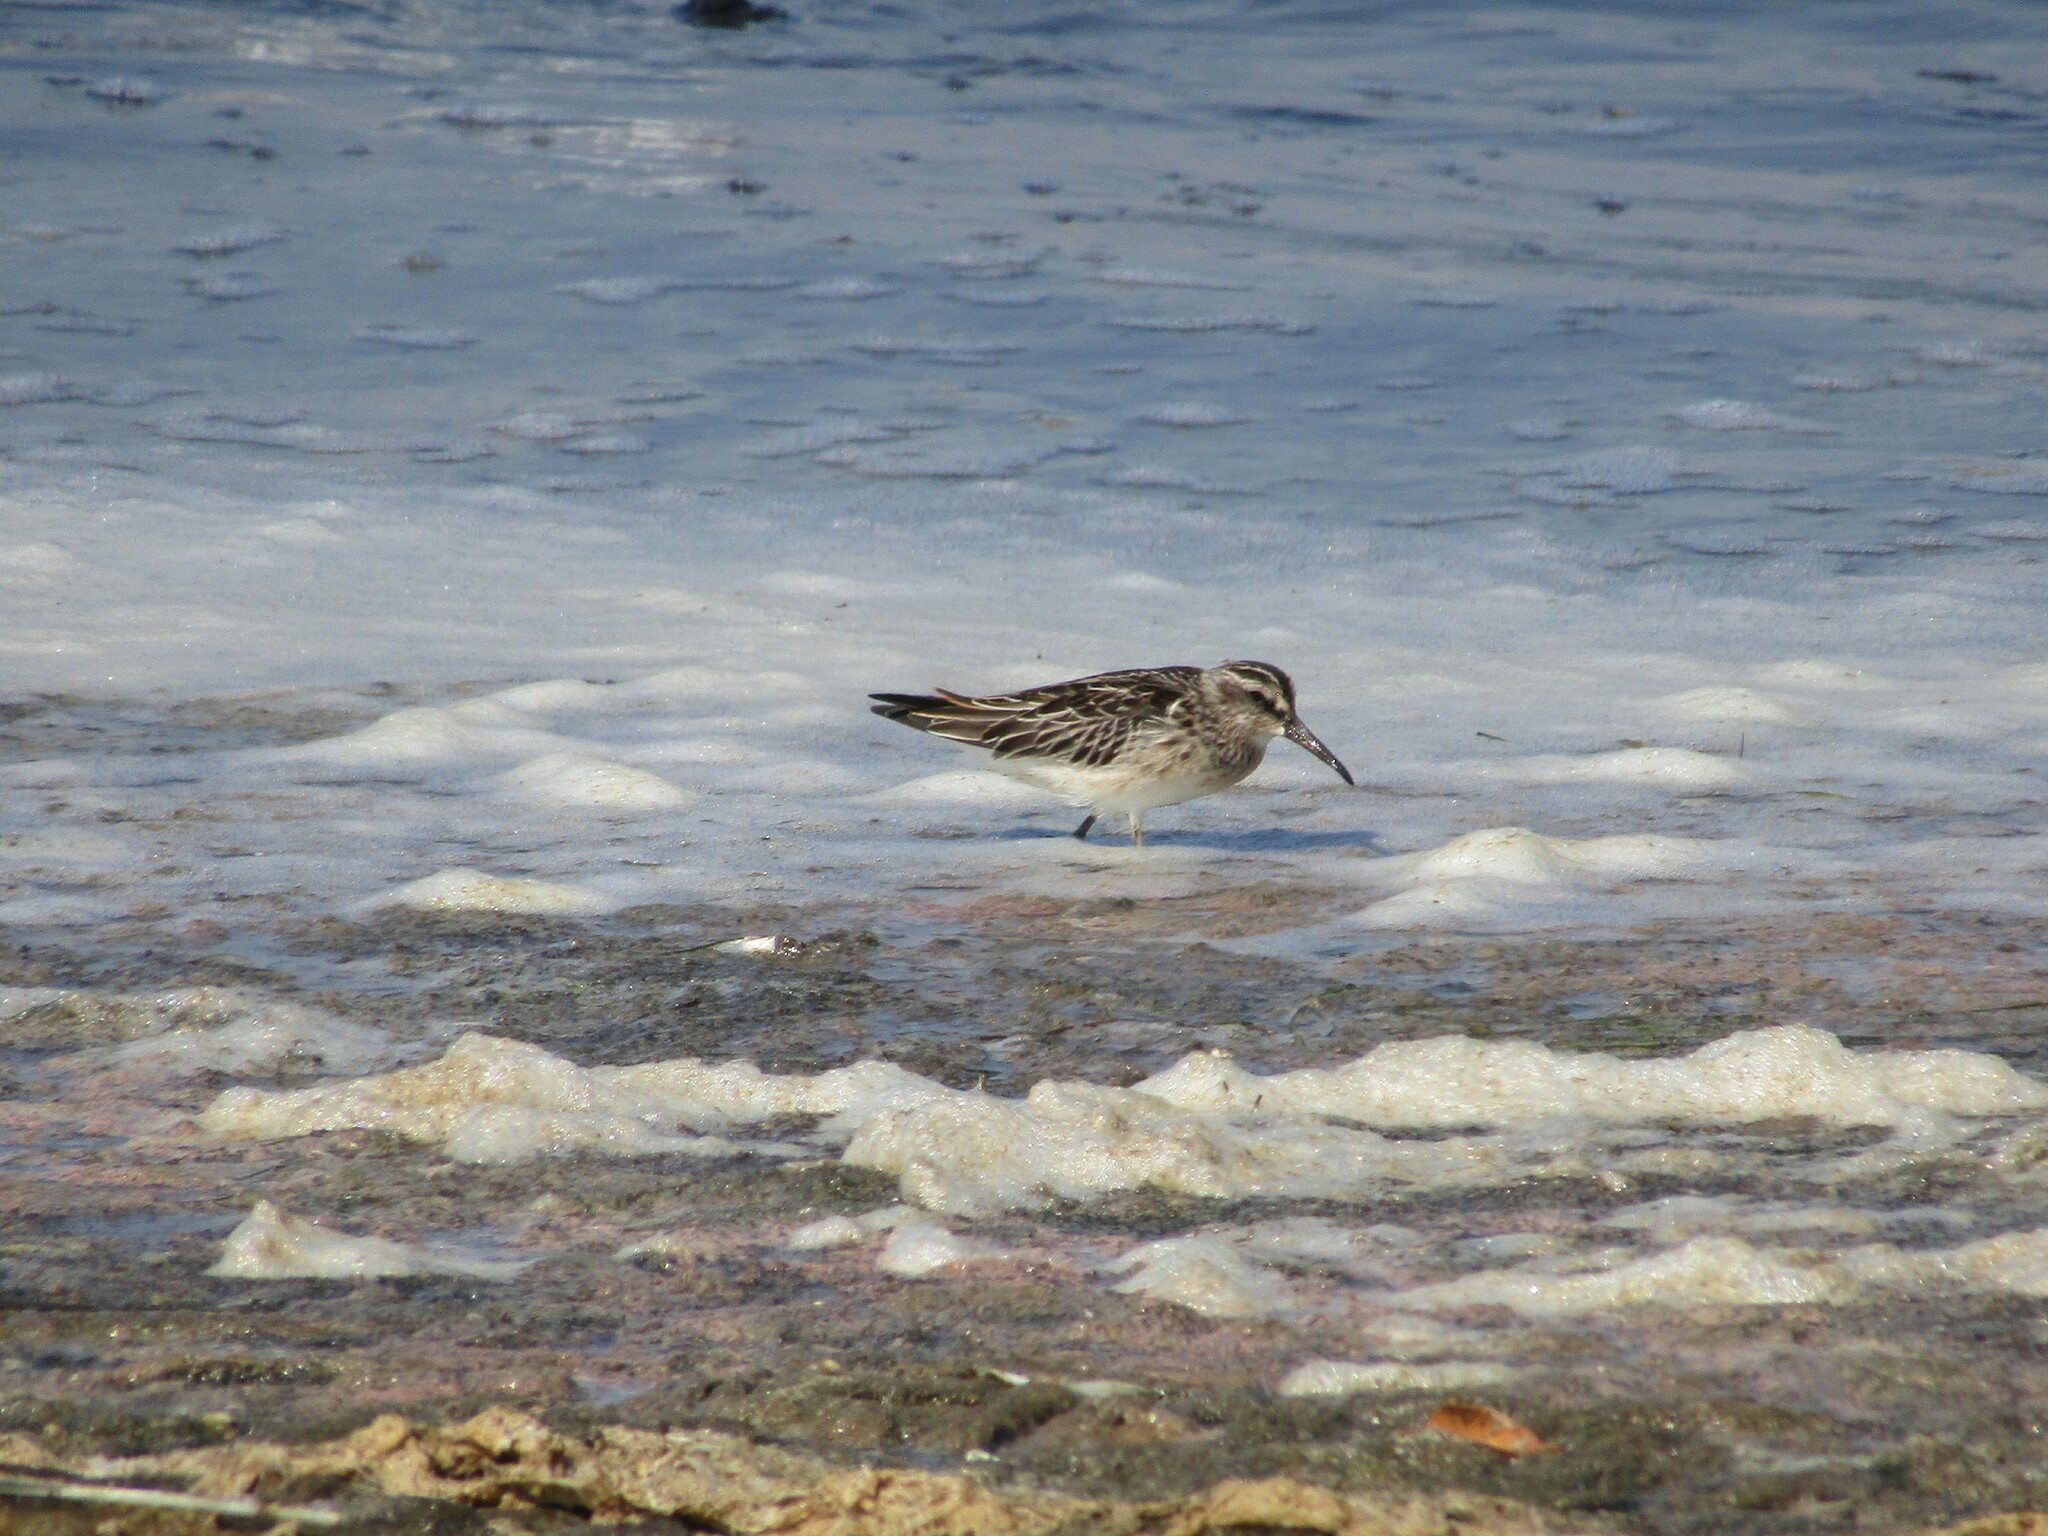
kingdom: Animalia
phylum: Chordata
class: Aves
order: Charadriiformes
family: Scolopacidae
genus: Calidris
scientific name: Calidris falcinellus
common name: Broad-billed sandpiper
